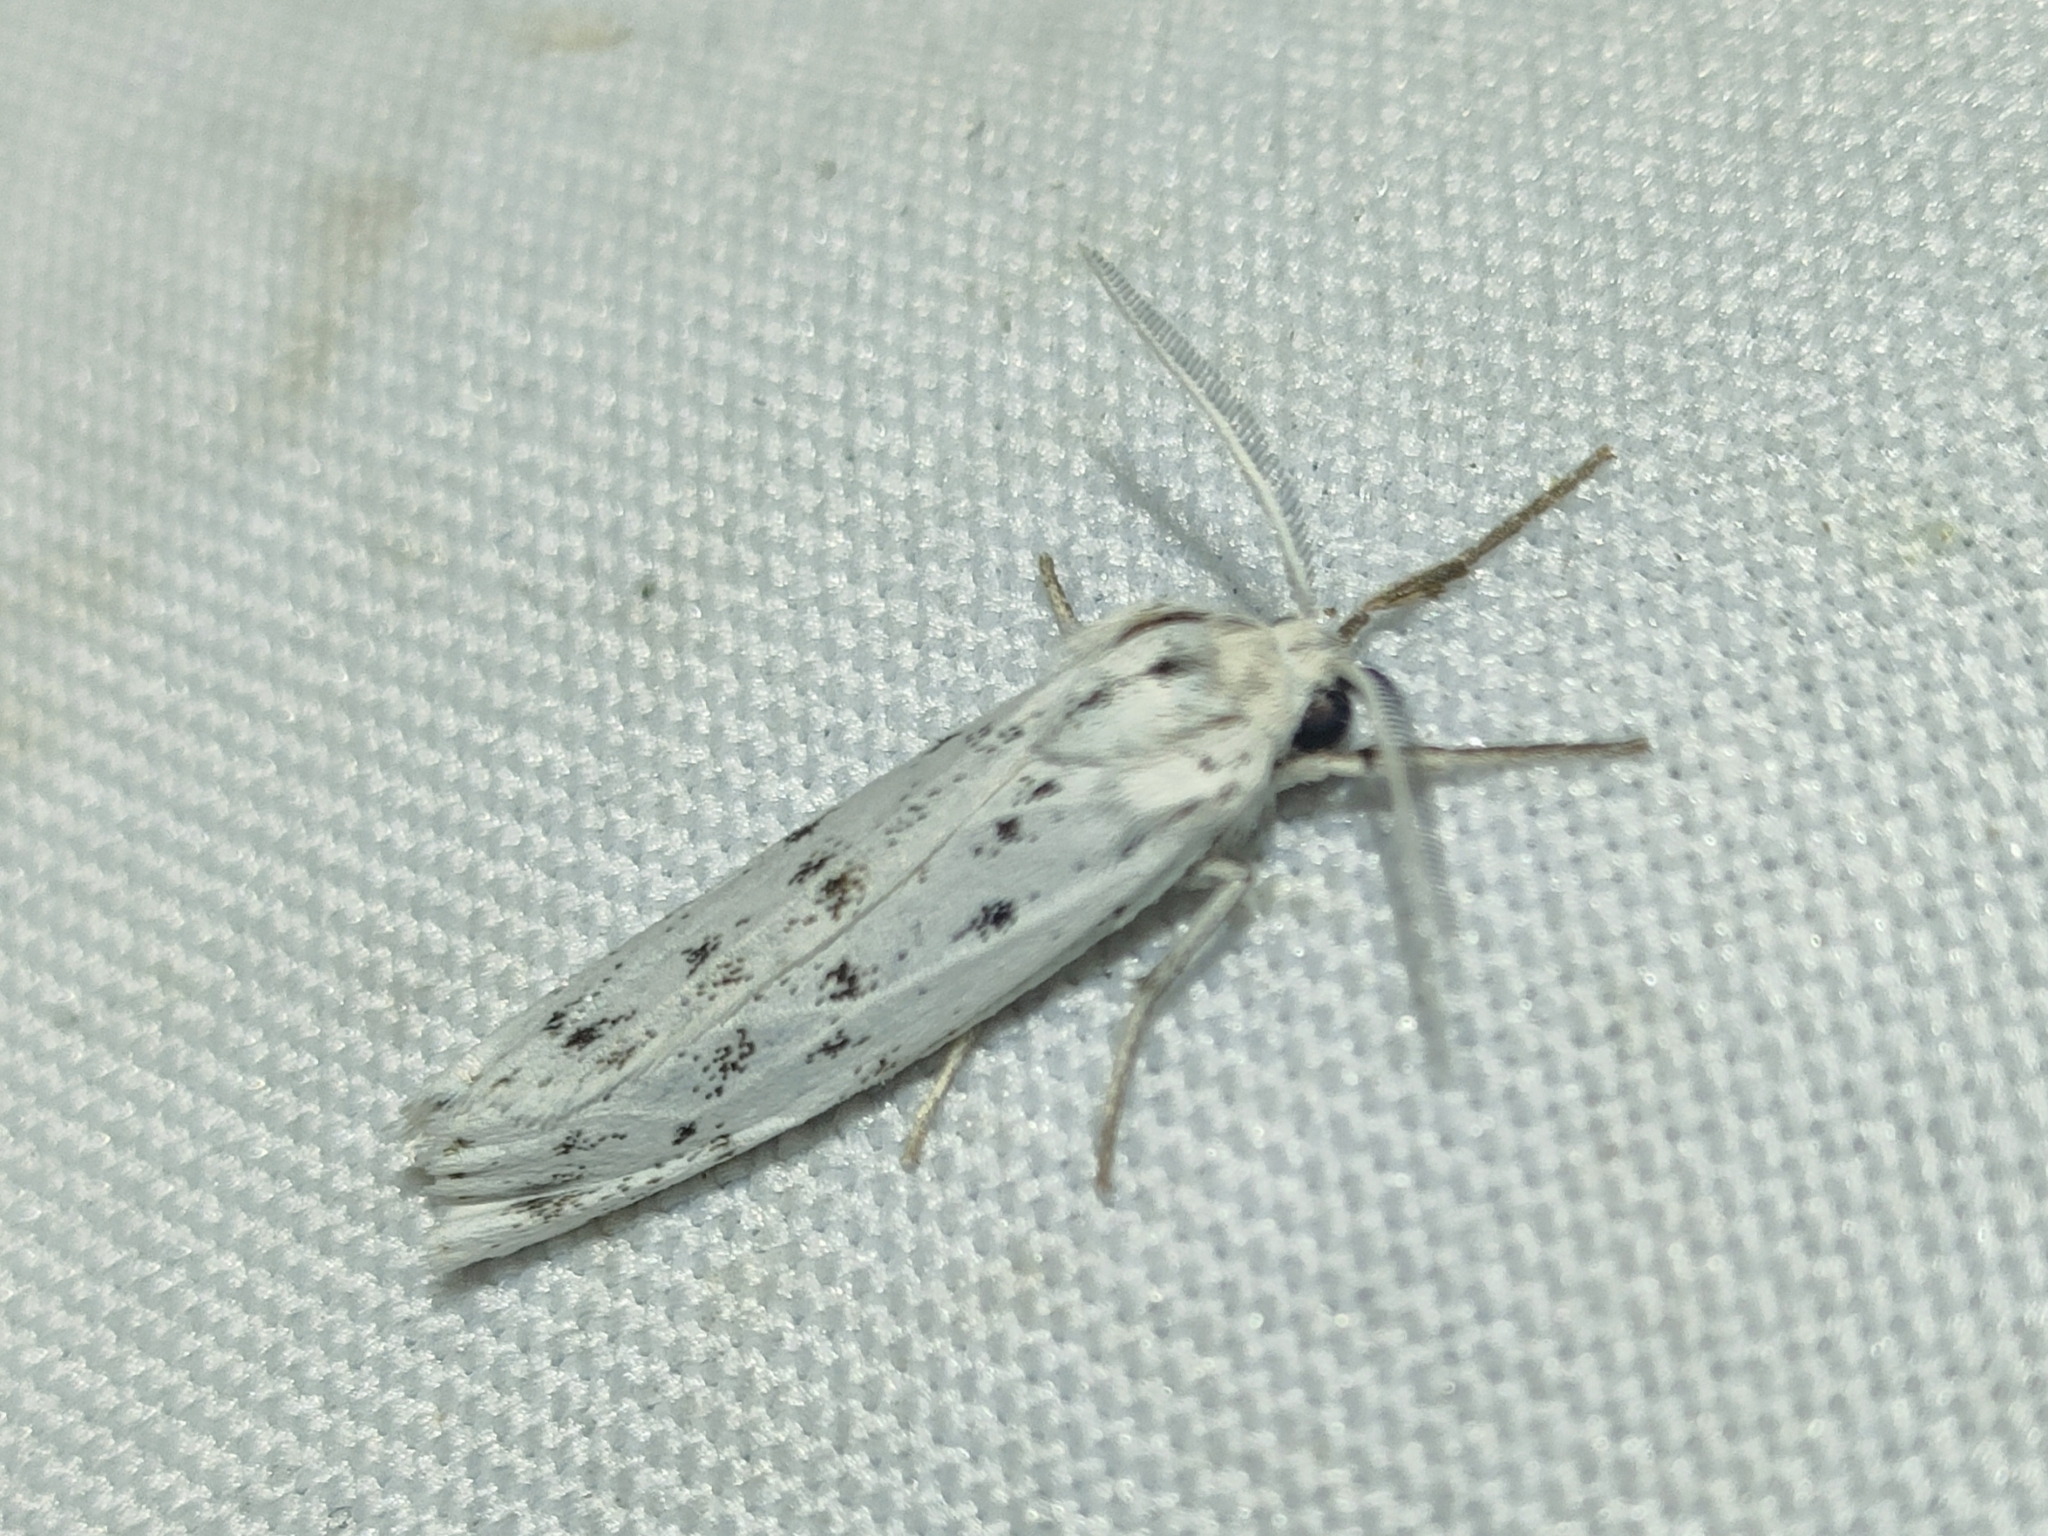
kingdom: Animalia
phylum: Arthropoda
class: Insecta
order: Lepidoptera
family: Erebidae
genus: Coscinia
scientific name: Coscinia cribraria
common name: Speckled footman
